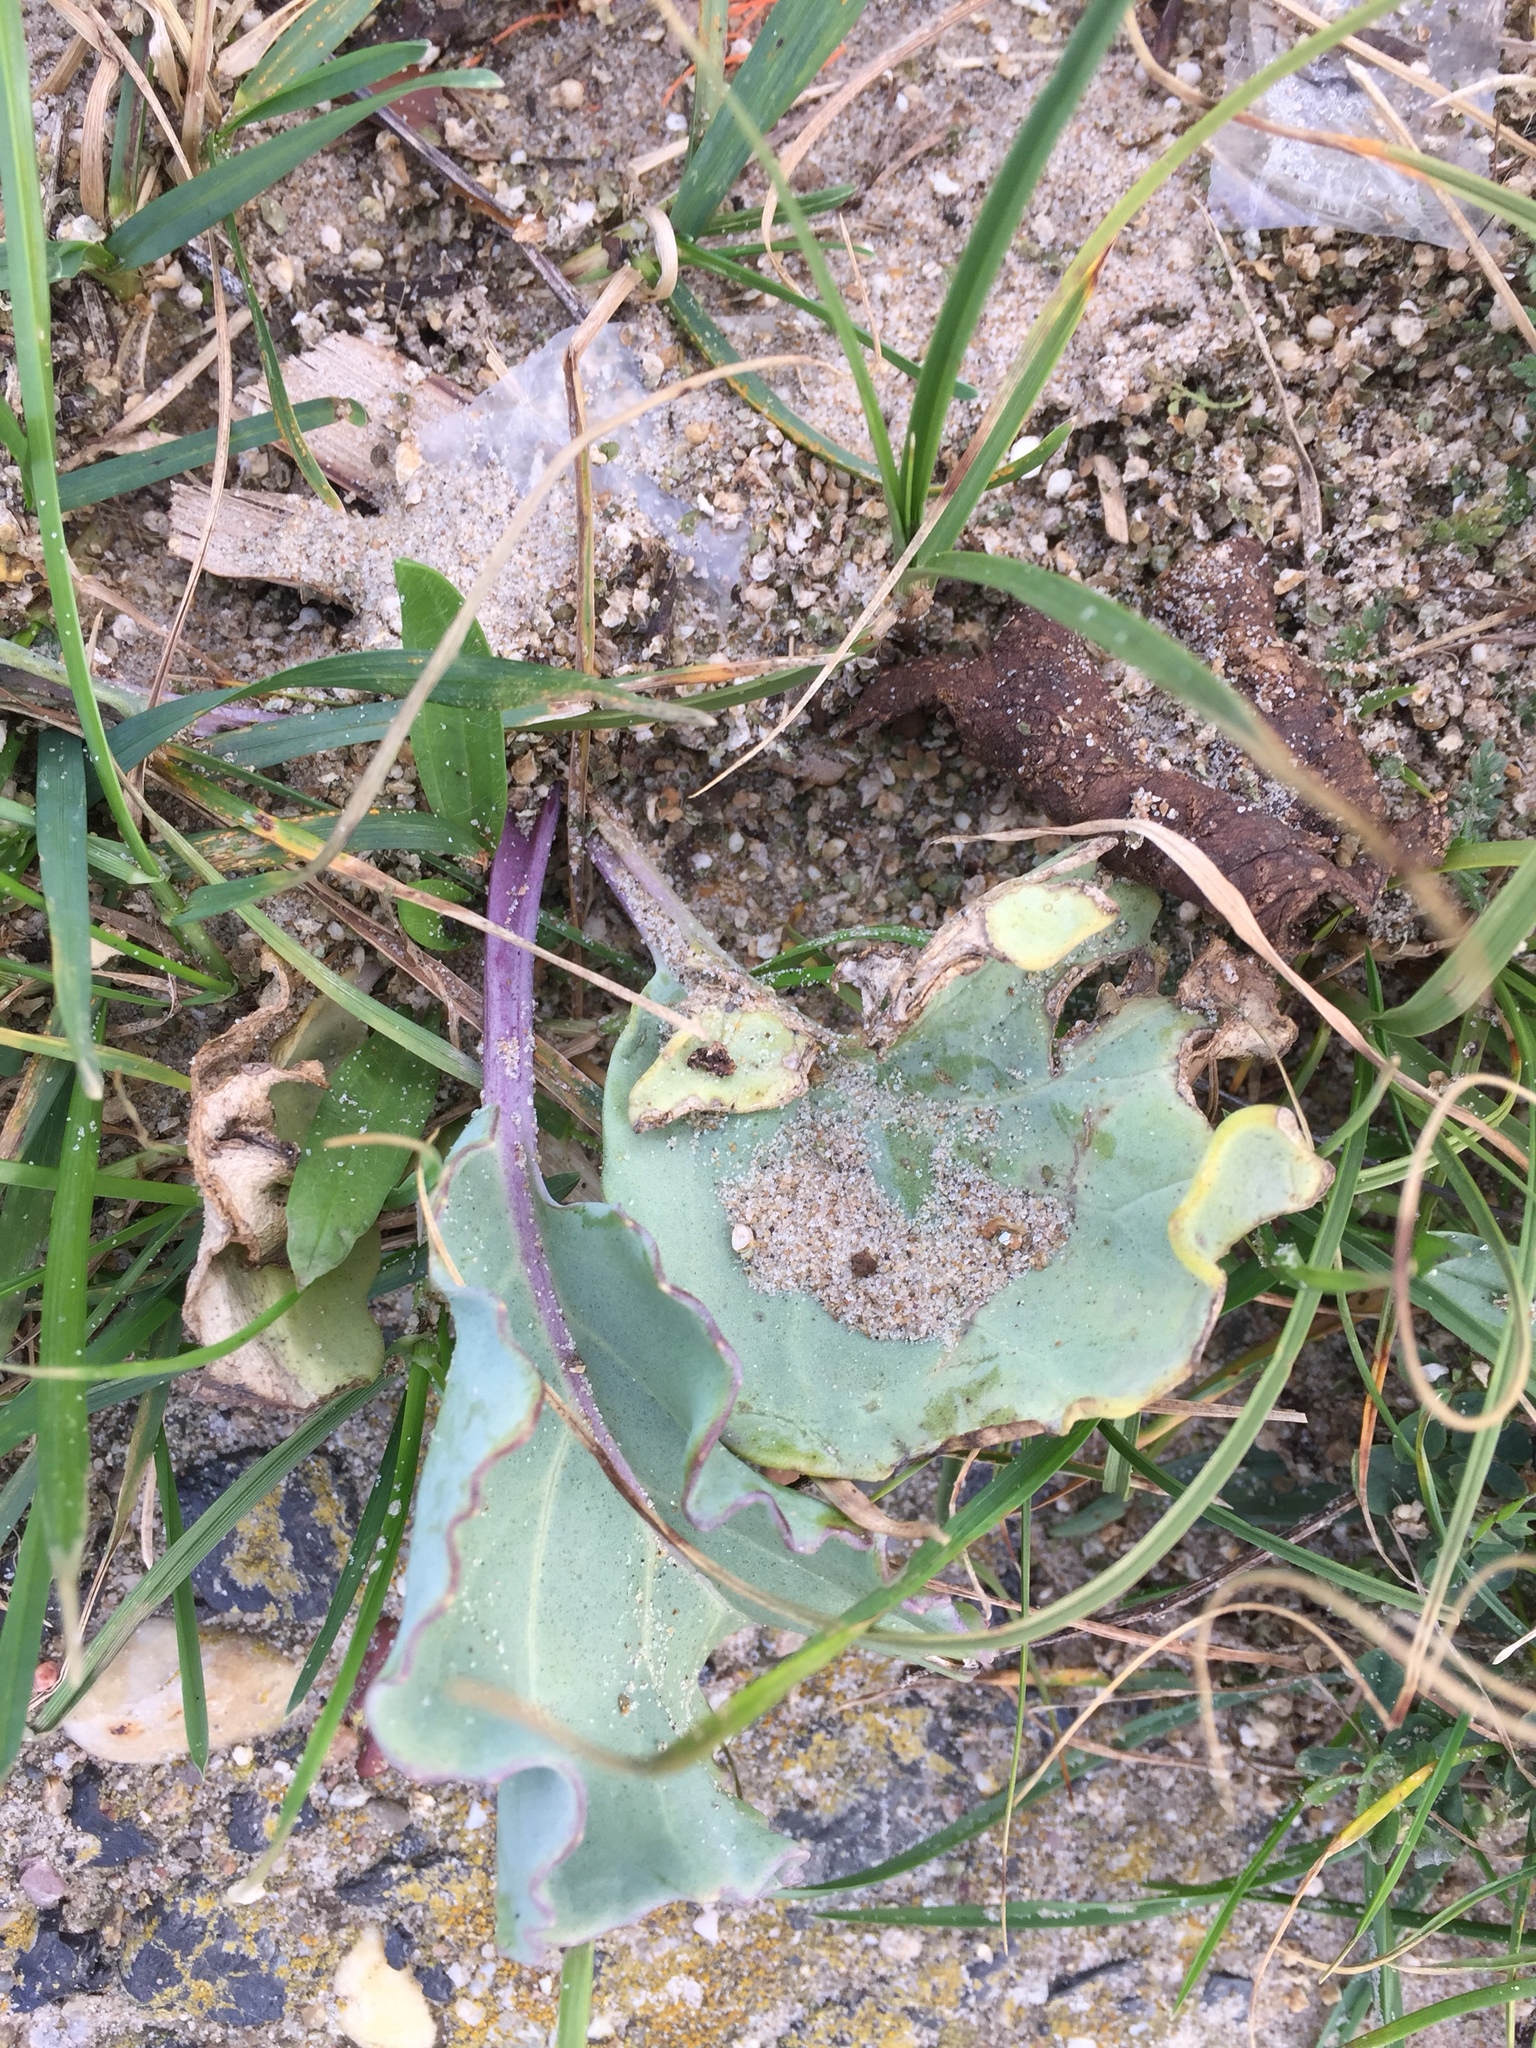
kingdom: Plantae
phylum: Tracheophyta
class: Magnoliopsida
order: Brassicales
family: Brassicaceae
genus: Crambe
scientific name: Crambe maritima
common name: Sea-kale
